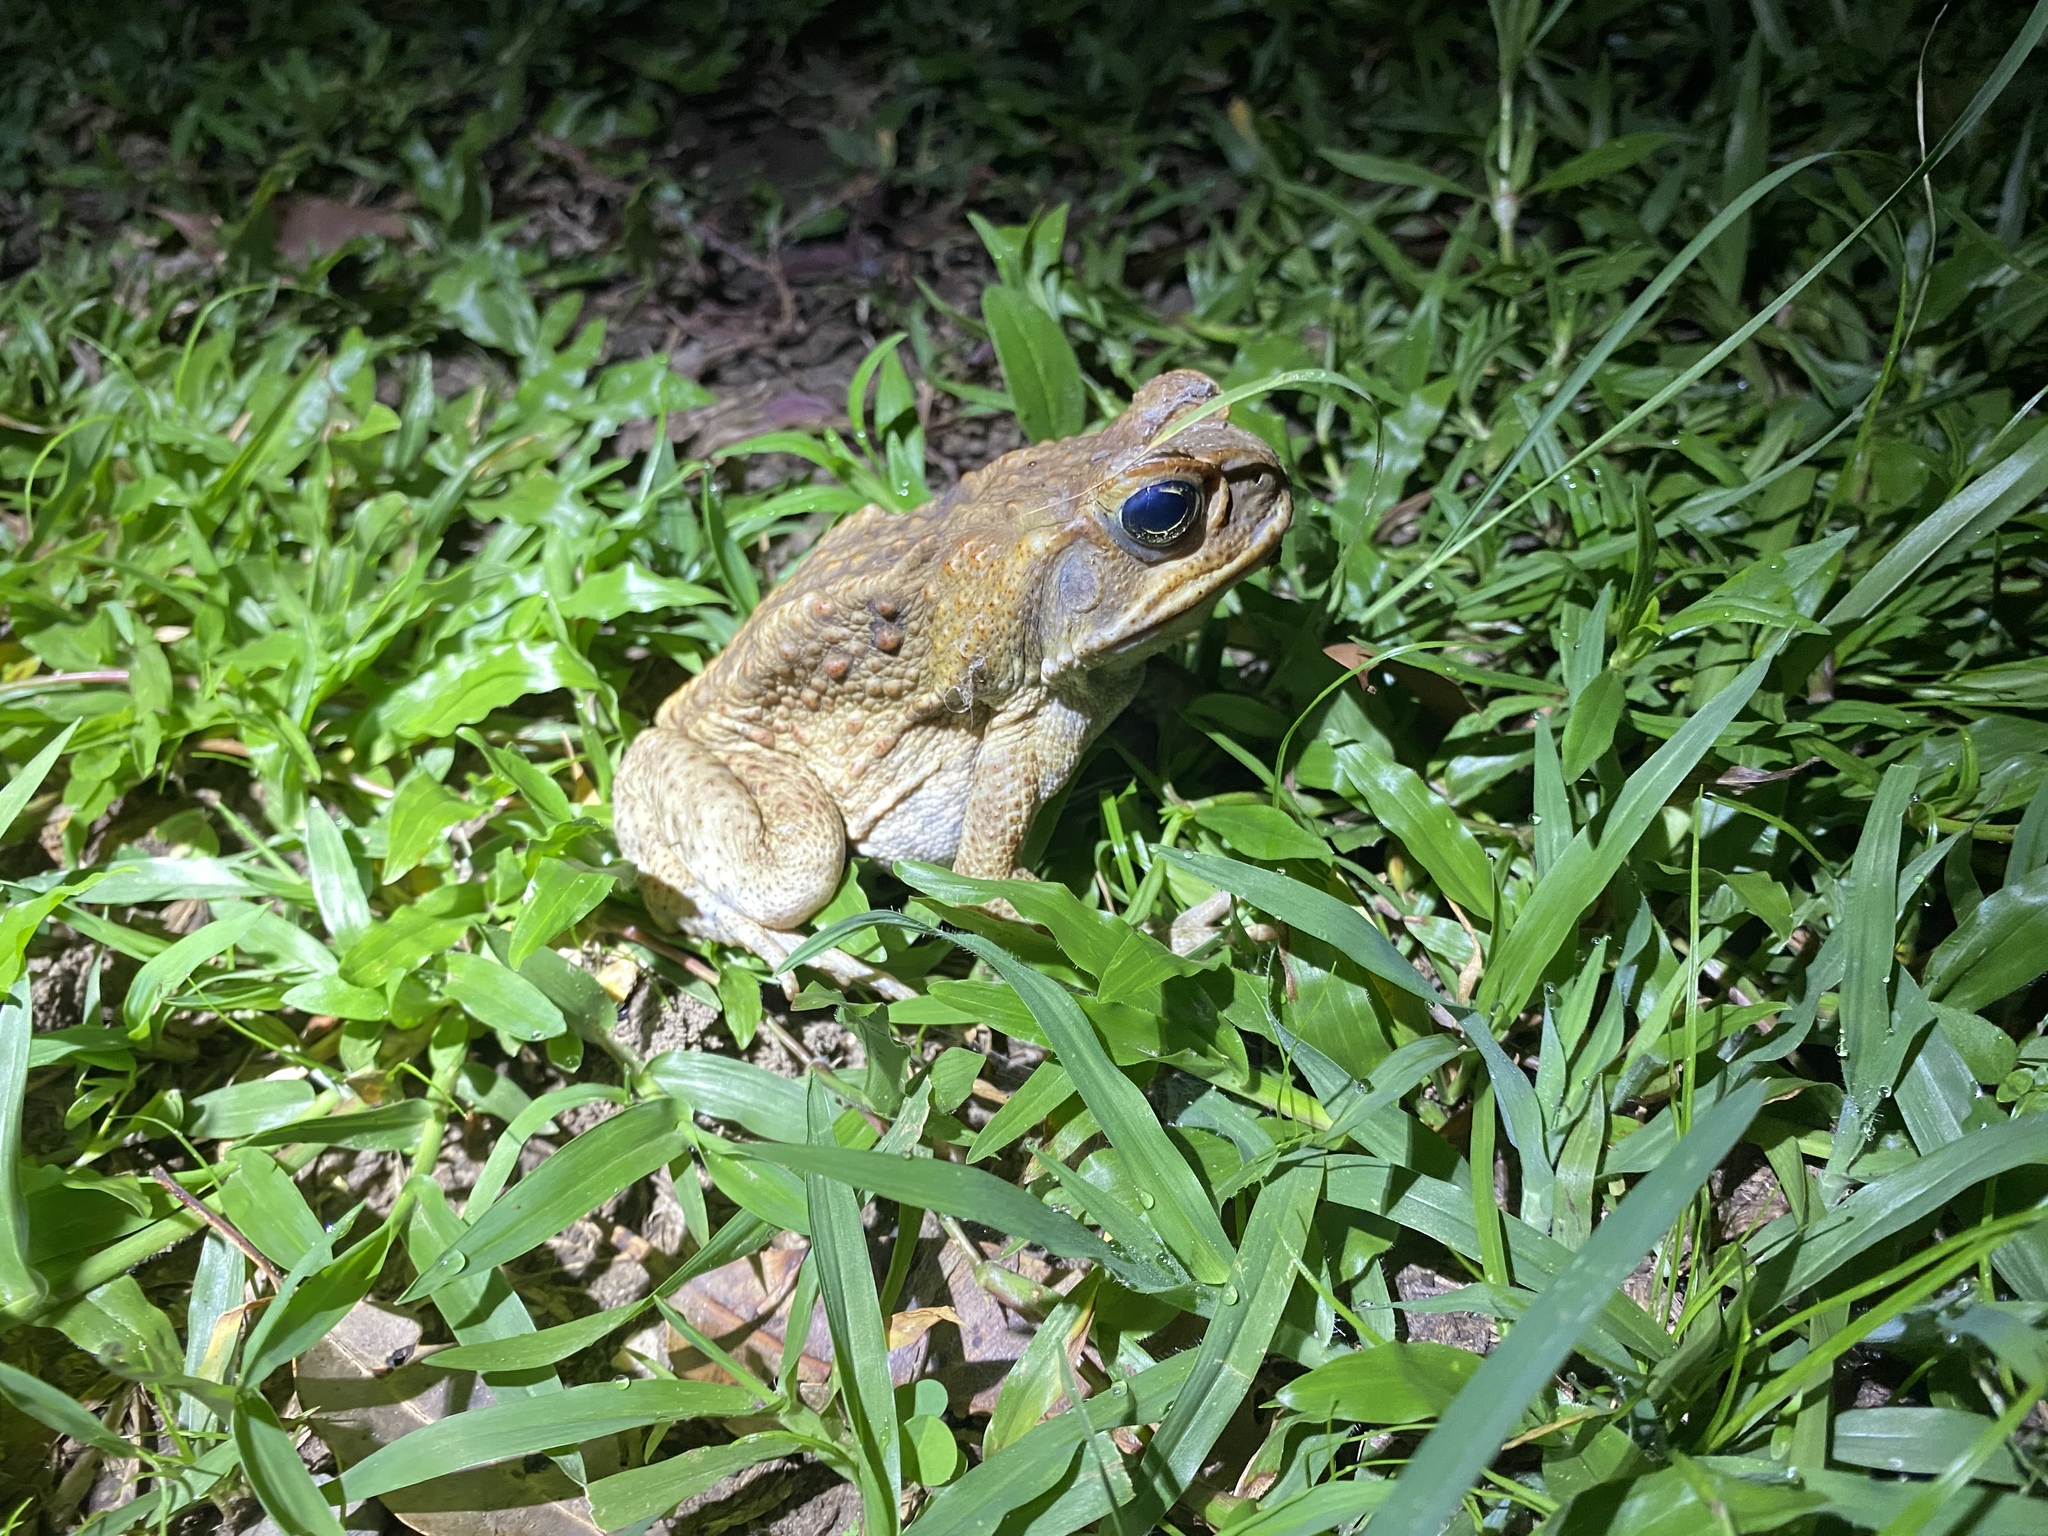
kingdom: Animalia
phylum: Chordata
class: Amphibia
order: Anura
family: Bufonidae
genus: Rhinella
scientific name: Rhinella marina
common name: Cane toad
